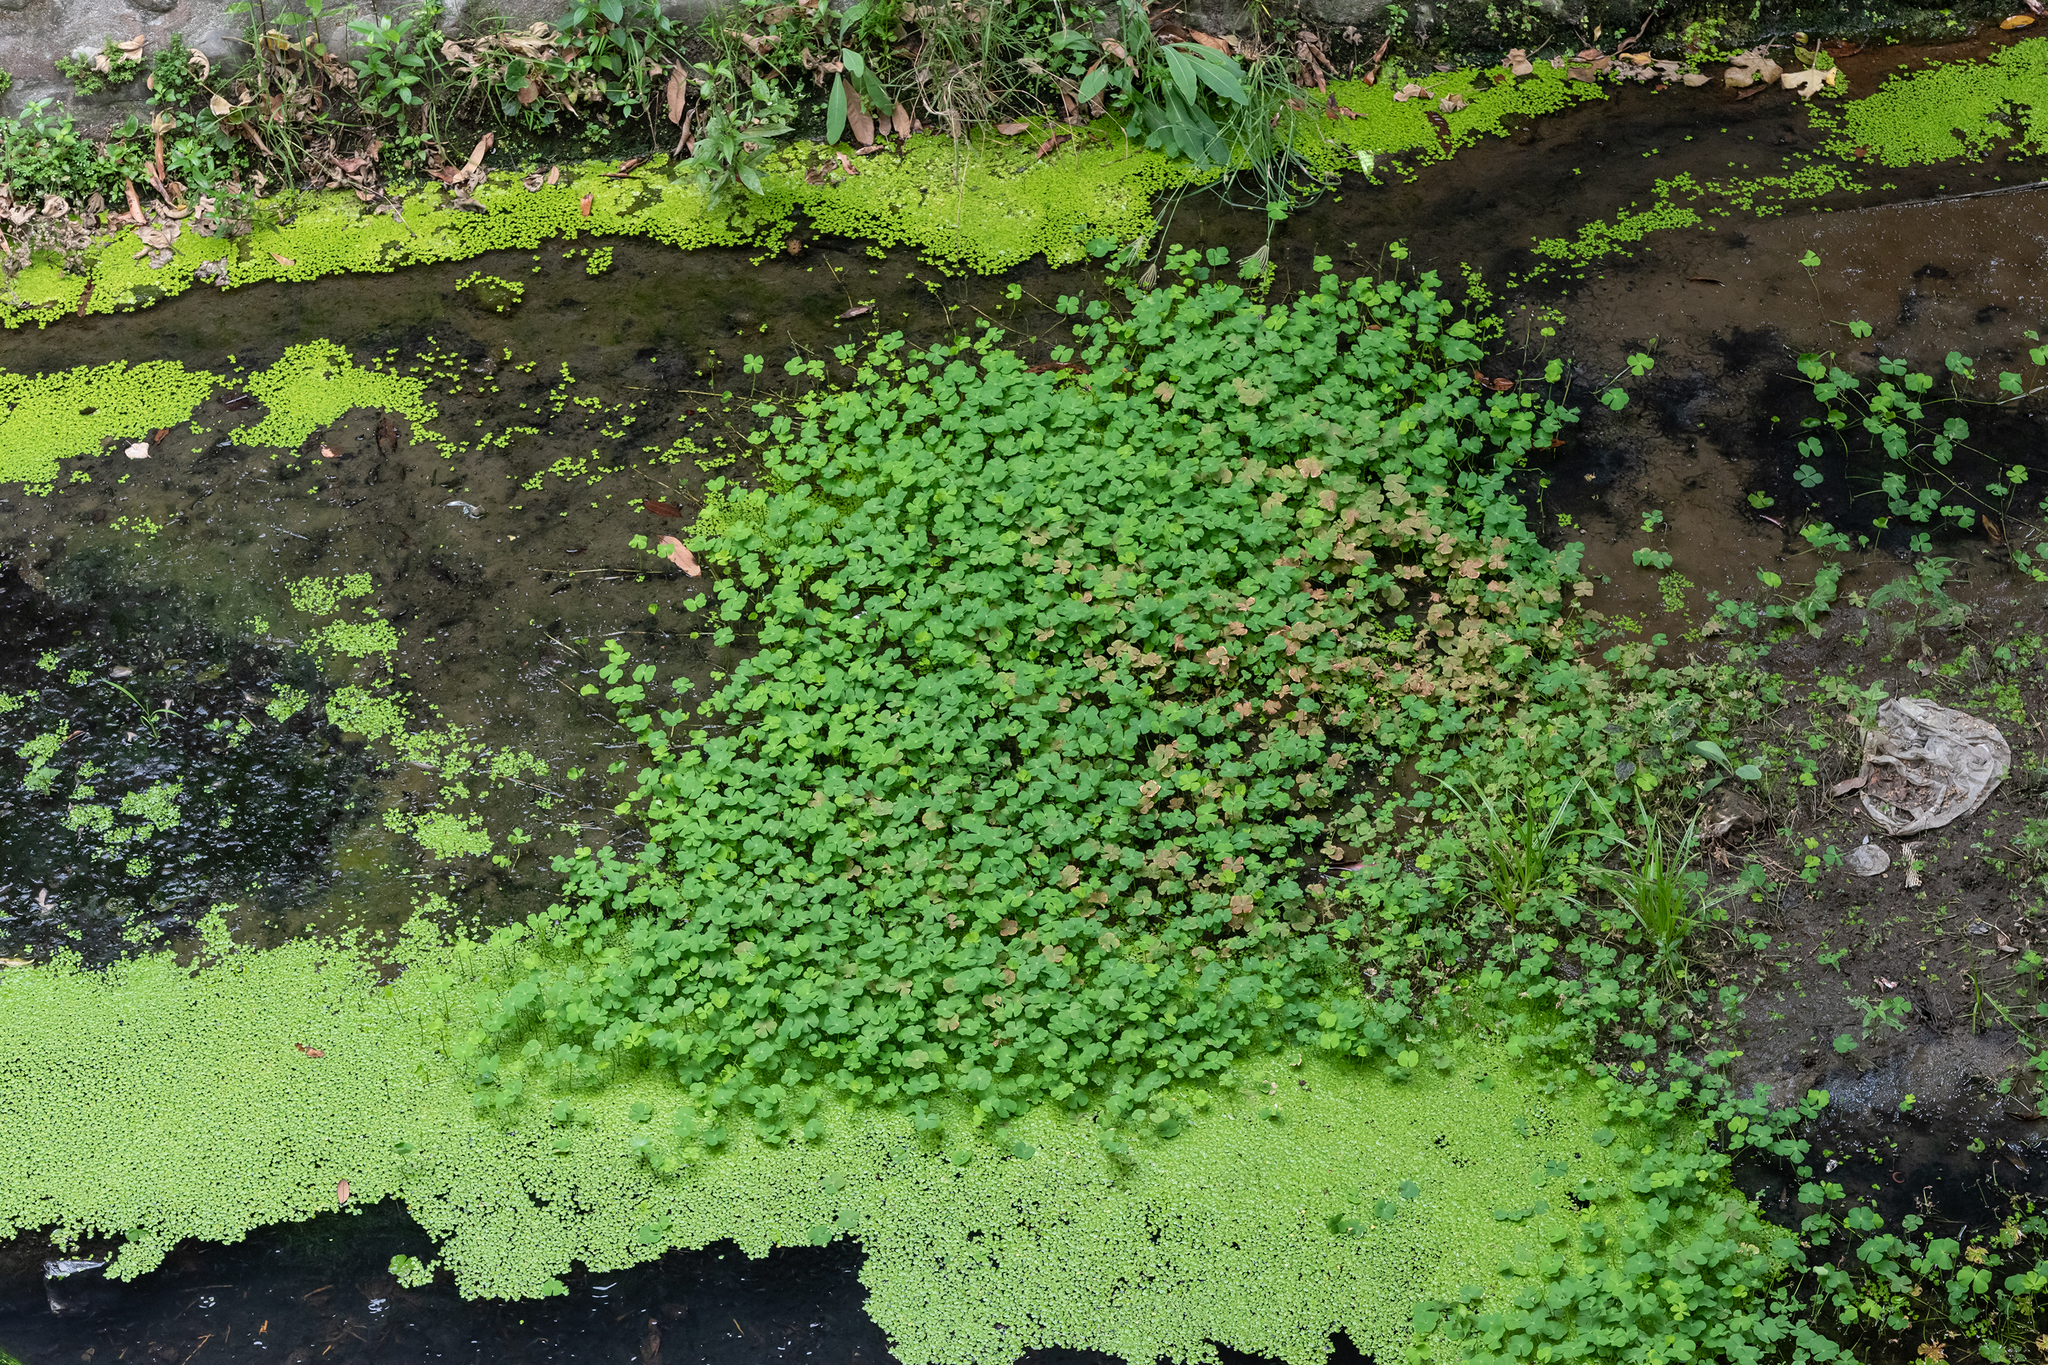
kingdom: Plantae
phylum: Tracheophyta
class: Polypodiopsida
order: Salviniales
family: Marsileaceae
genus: Marsilea
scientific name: Marsilea minuta
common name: Dwarf waterclover
